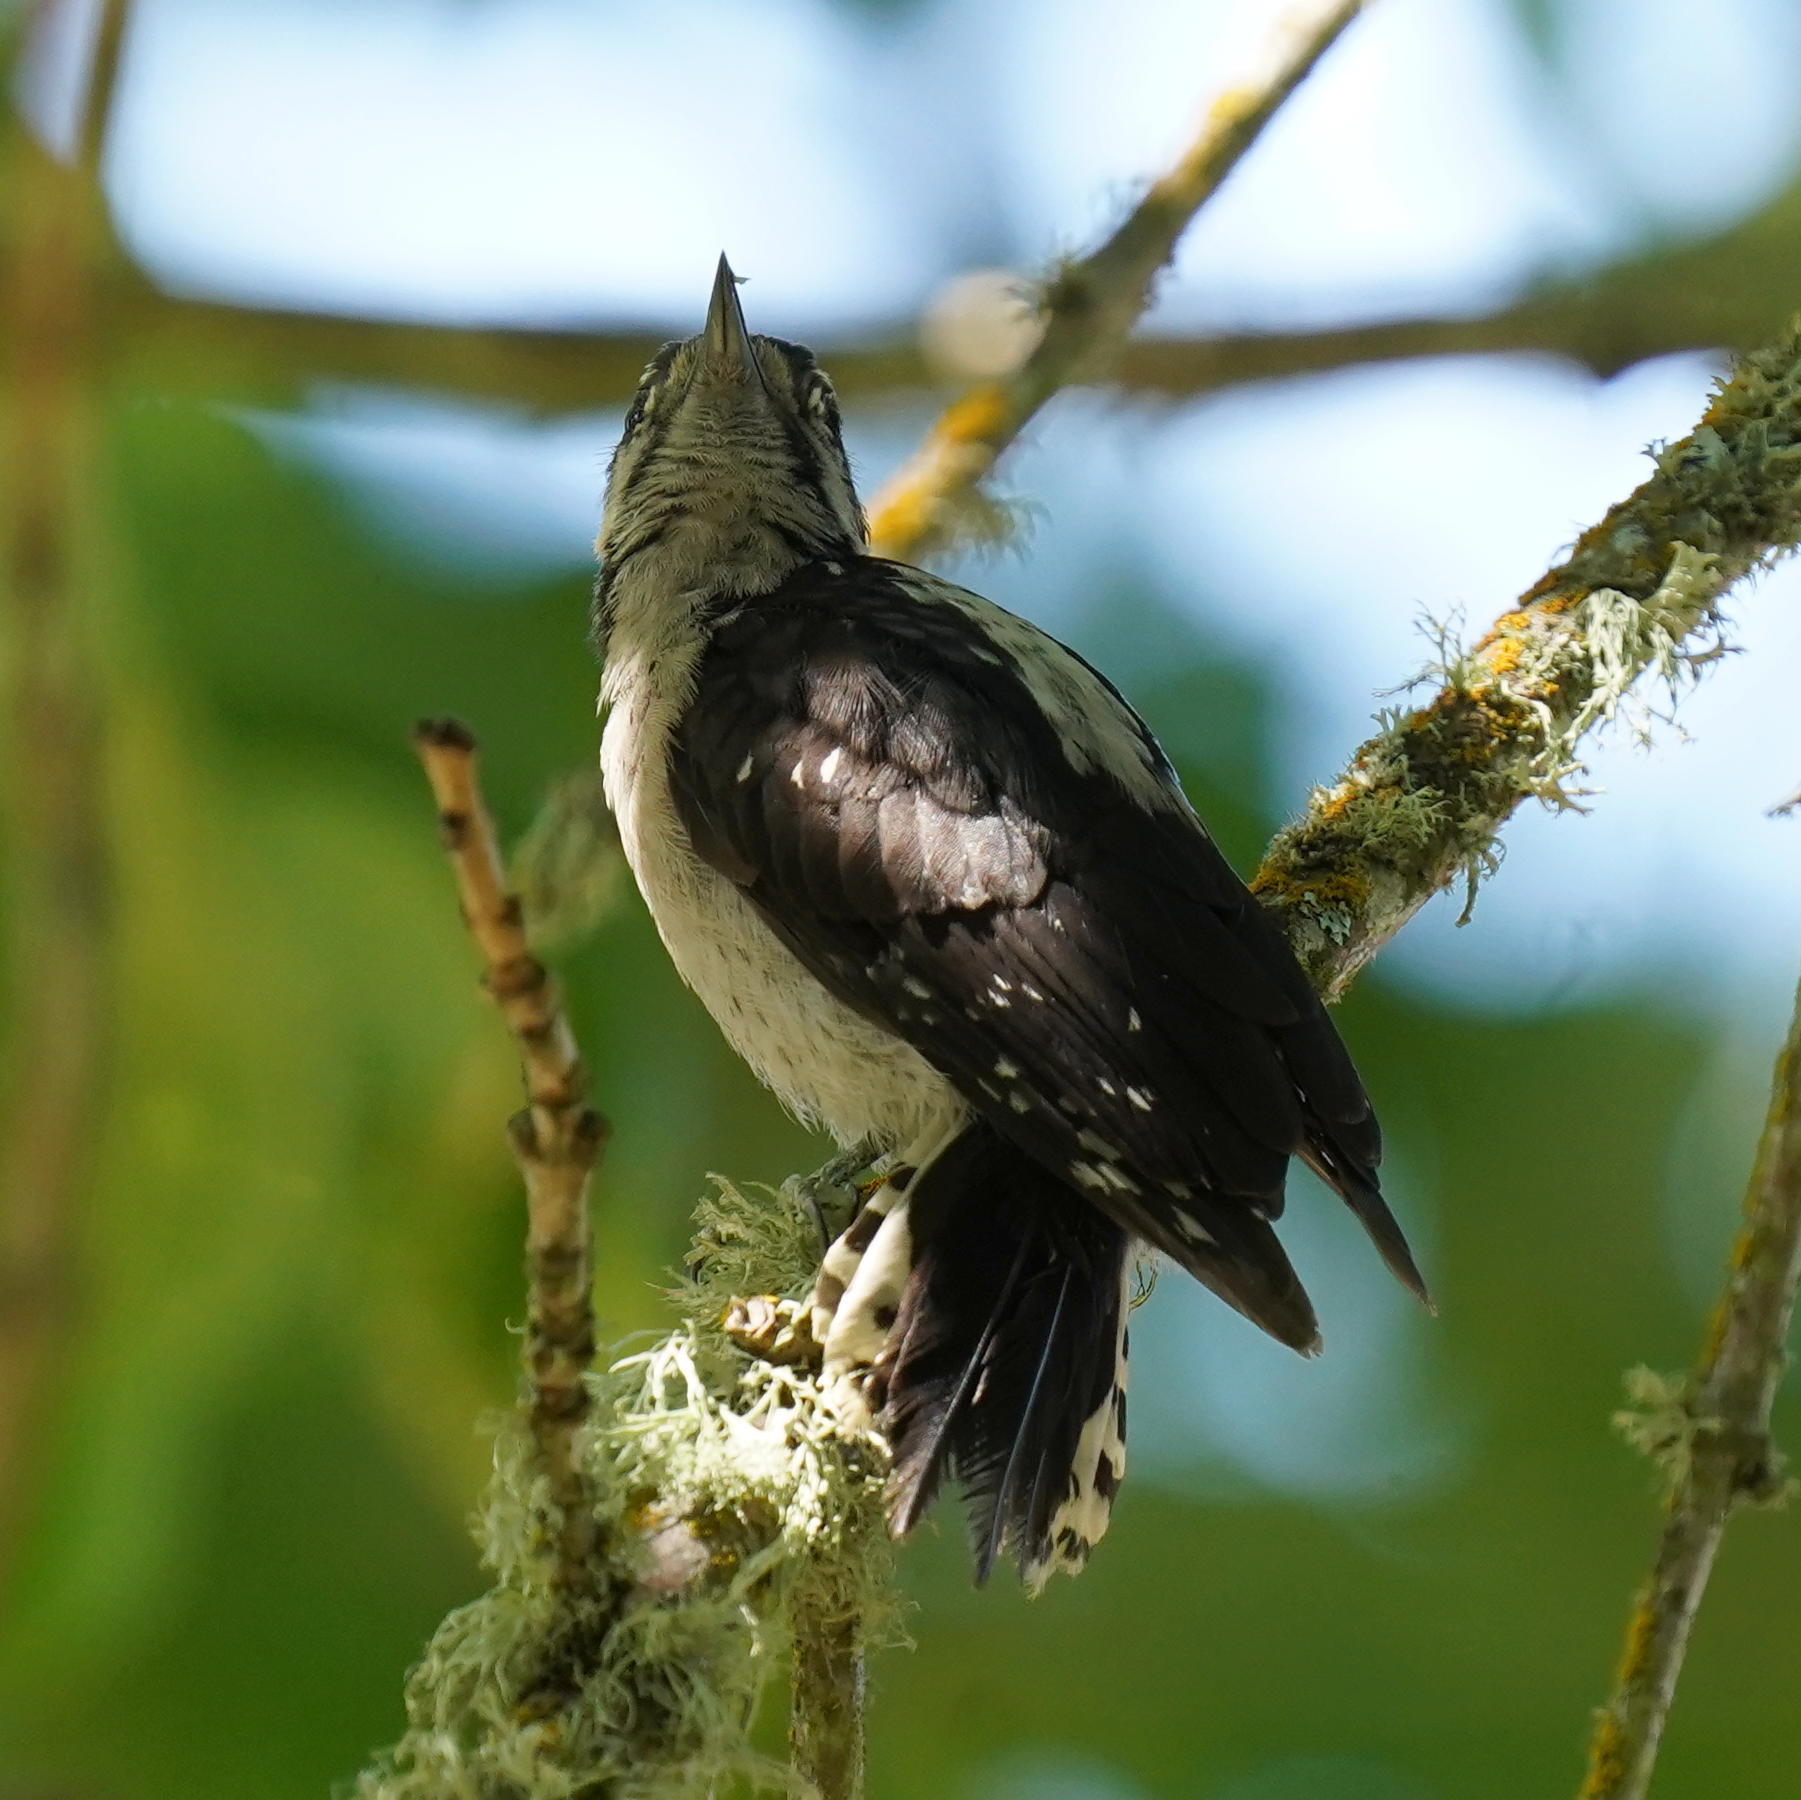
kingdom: Animalia
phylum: Chordata
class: Aves
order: Piciformes
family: Picidae
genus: Dryobates
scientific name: Dryobates pubescens
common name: Downy woodpecker
